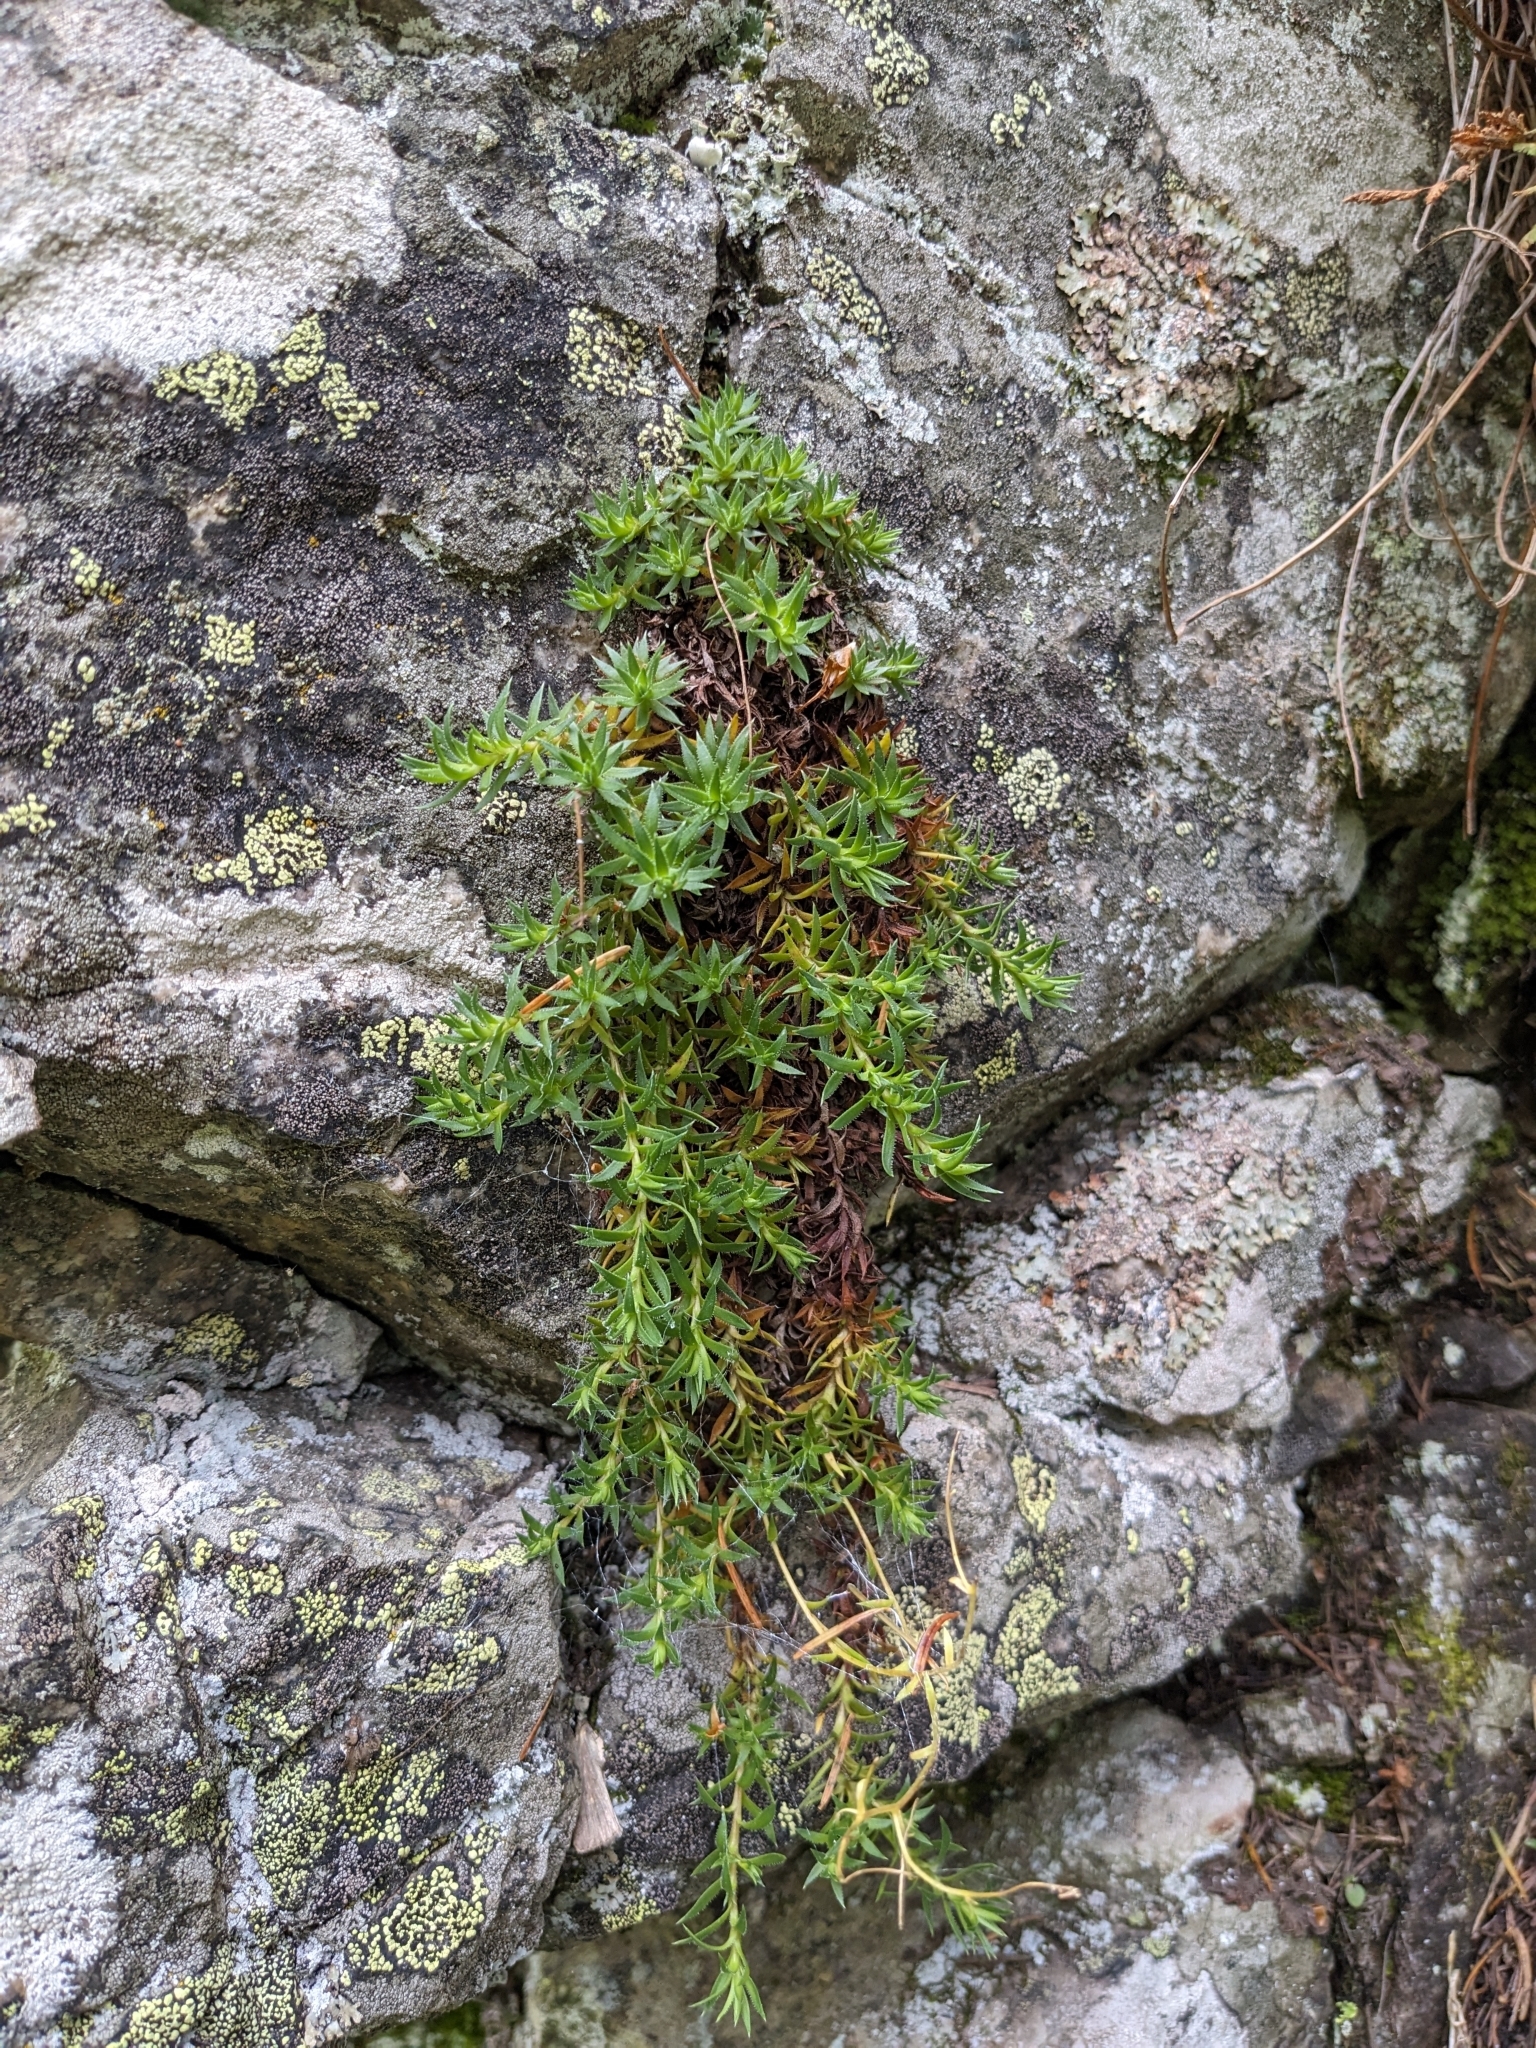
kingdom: Plantae
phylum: Tracheophyta
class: Magnoliopsida
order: Saxifragales
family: Saxifragaceae
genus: Saxifraga
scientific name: Saxifraga bronchialis
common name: Matted saxifrage
